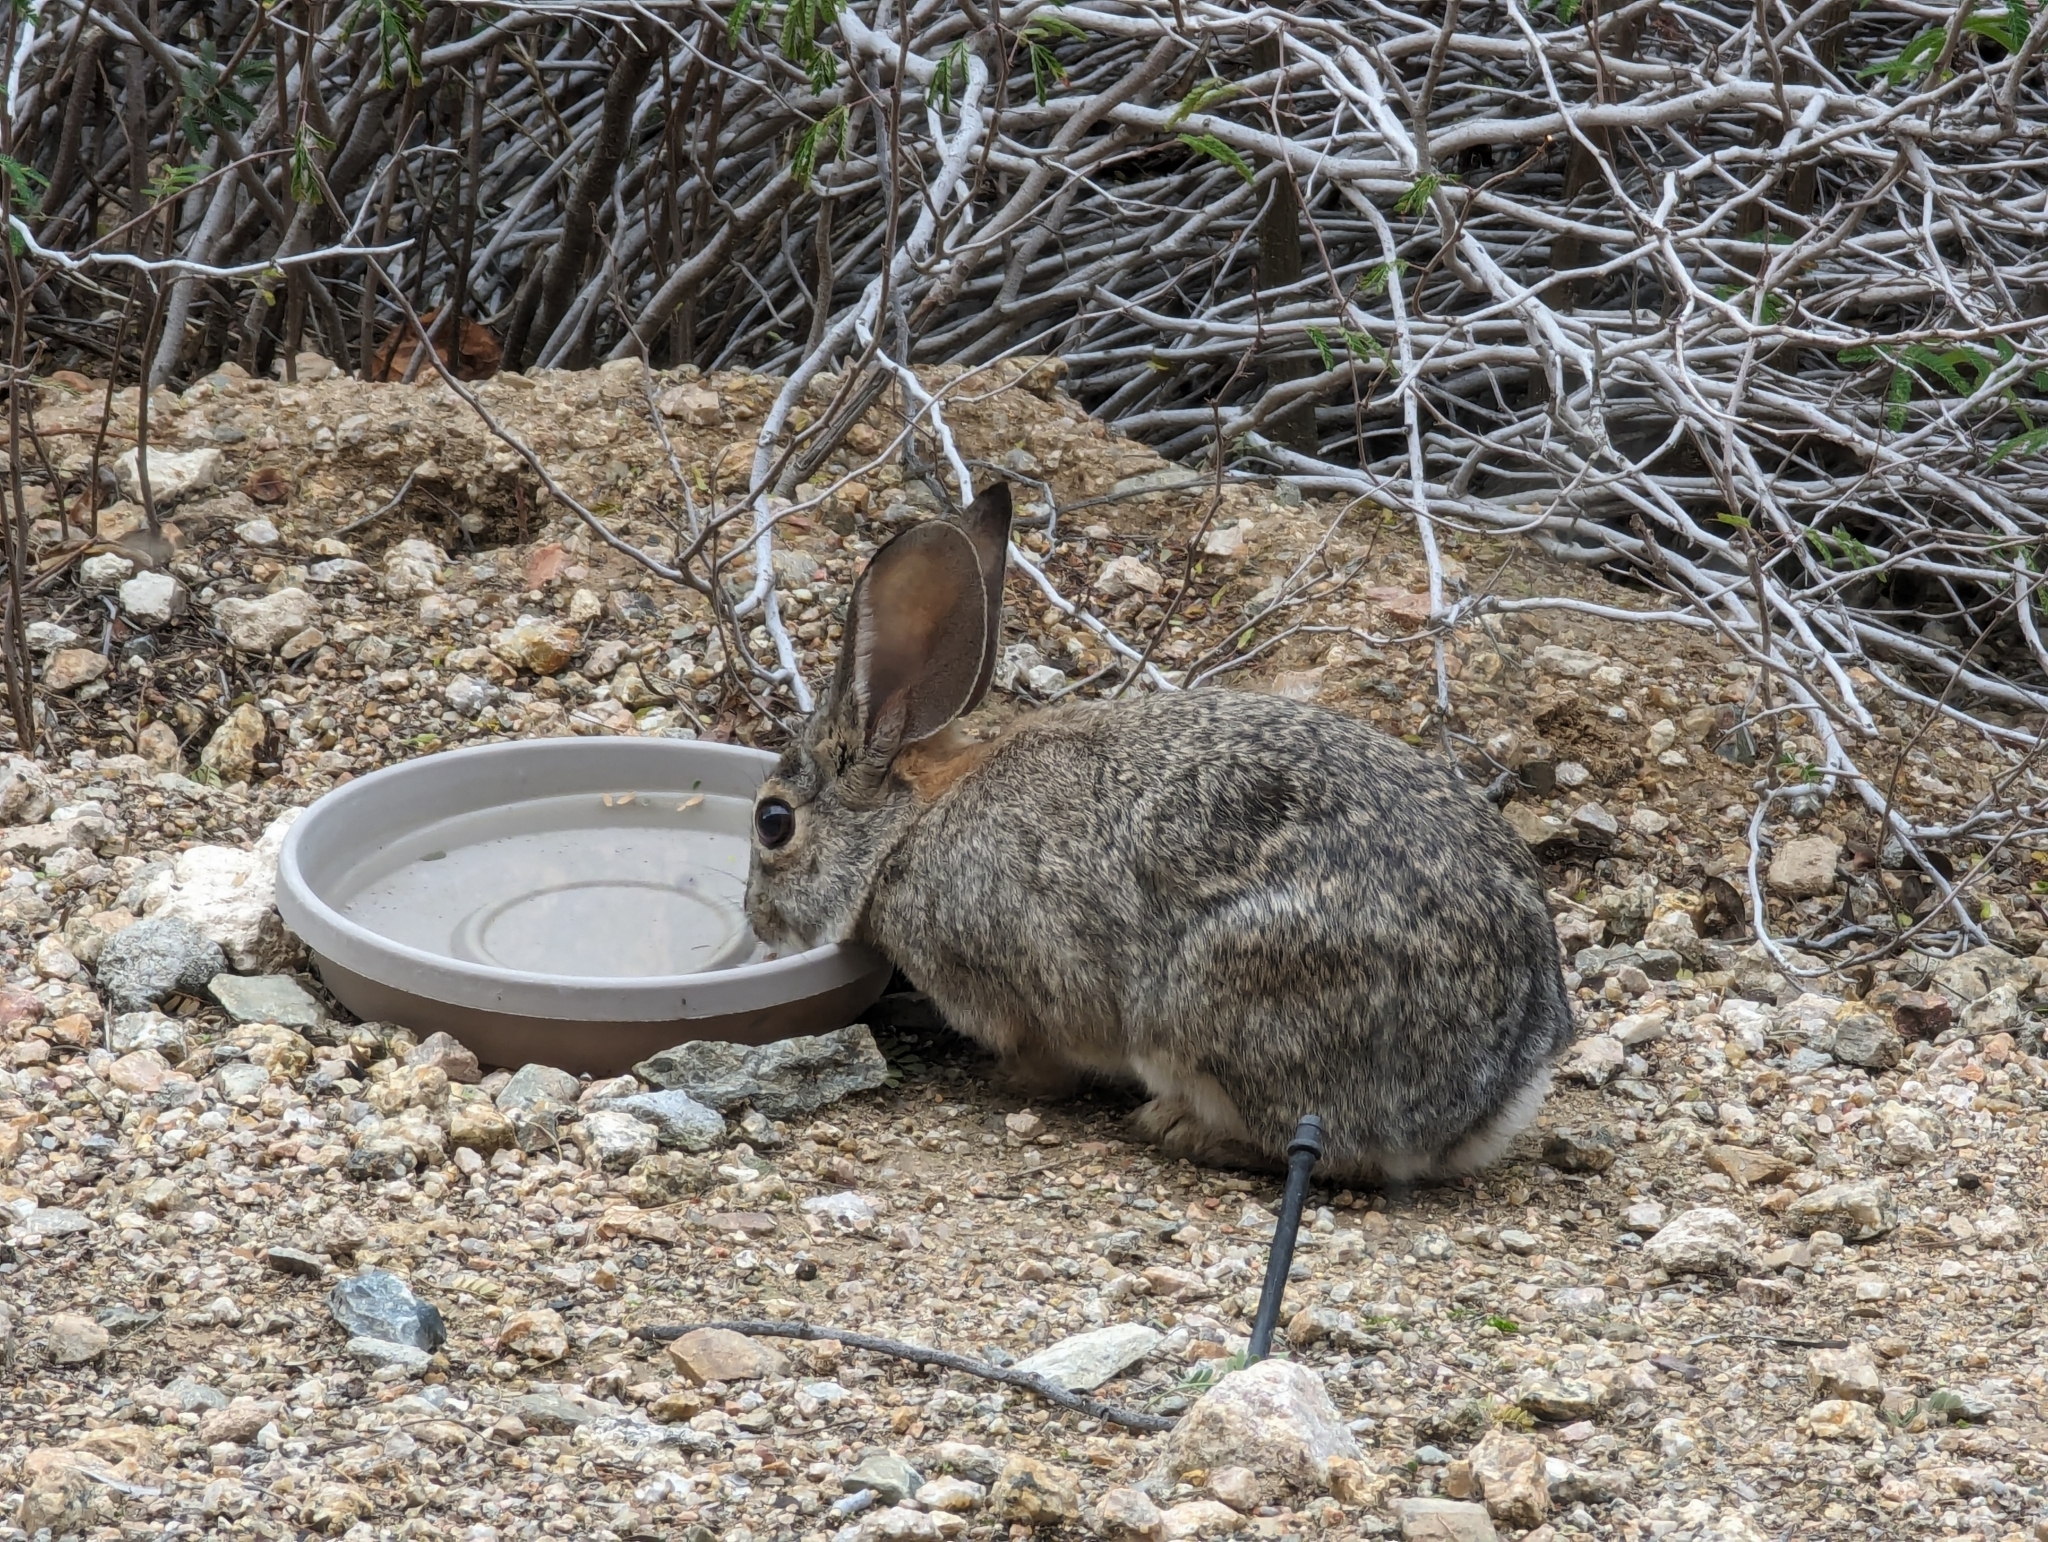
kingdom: Animalia
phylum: Chordata
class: Mammalia
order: Lagomorpha
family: Leporidae
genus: Sylvilagus
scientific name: Sylvilagus audubonii
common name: Desert cottontail
